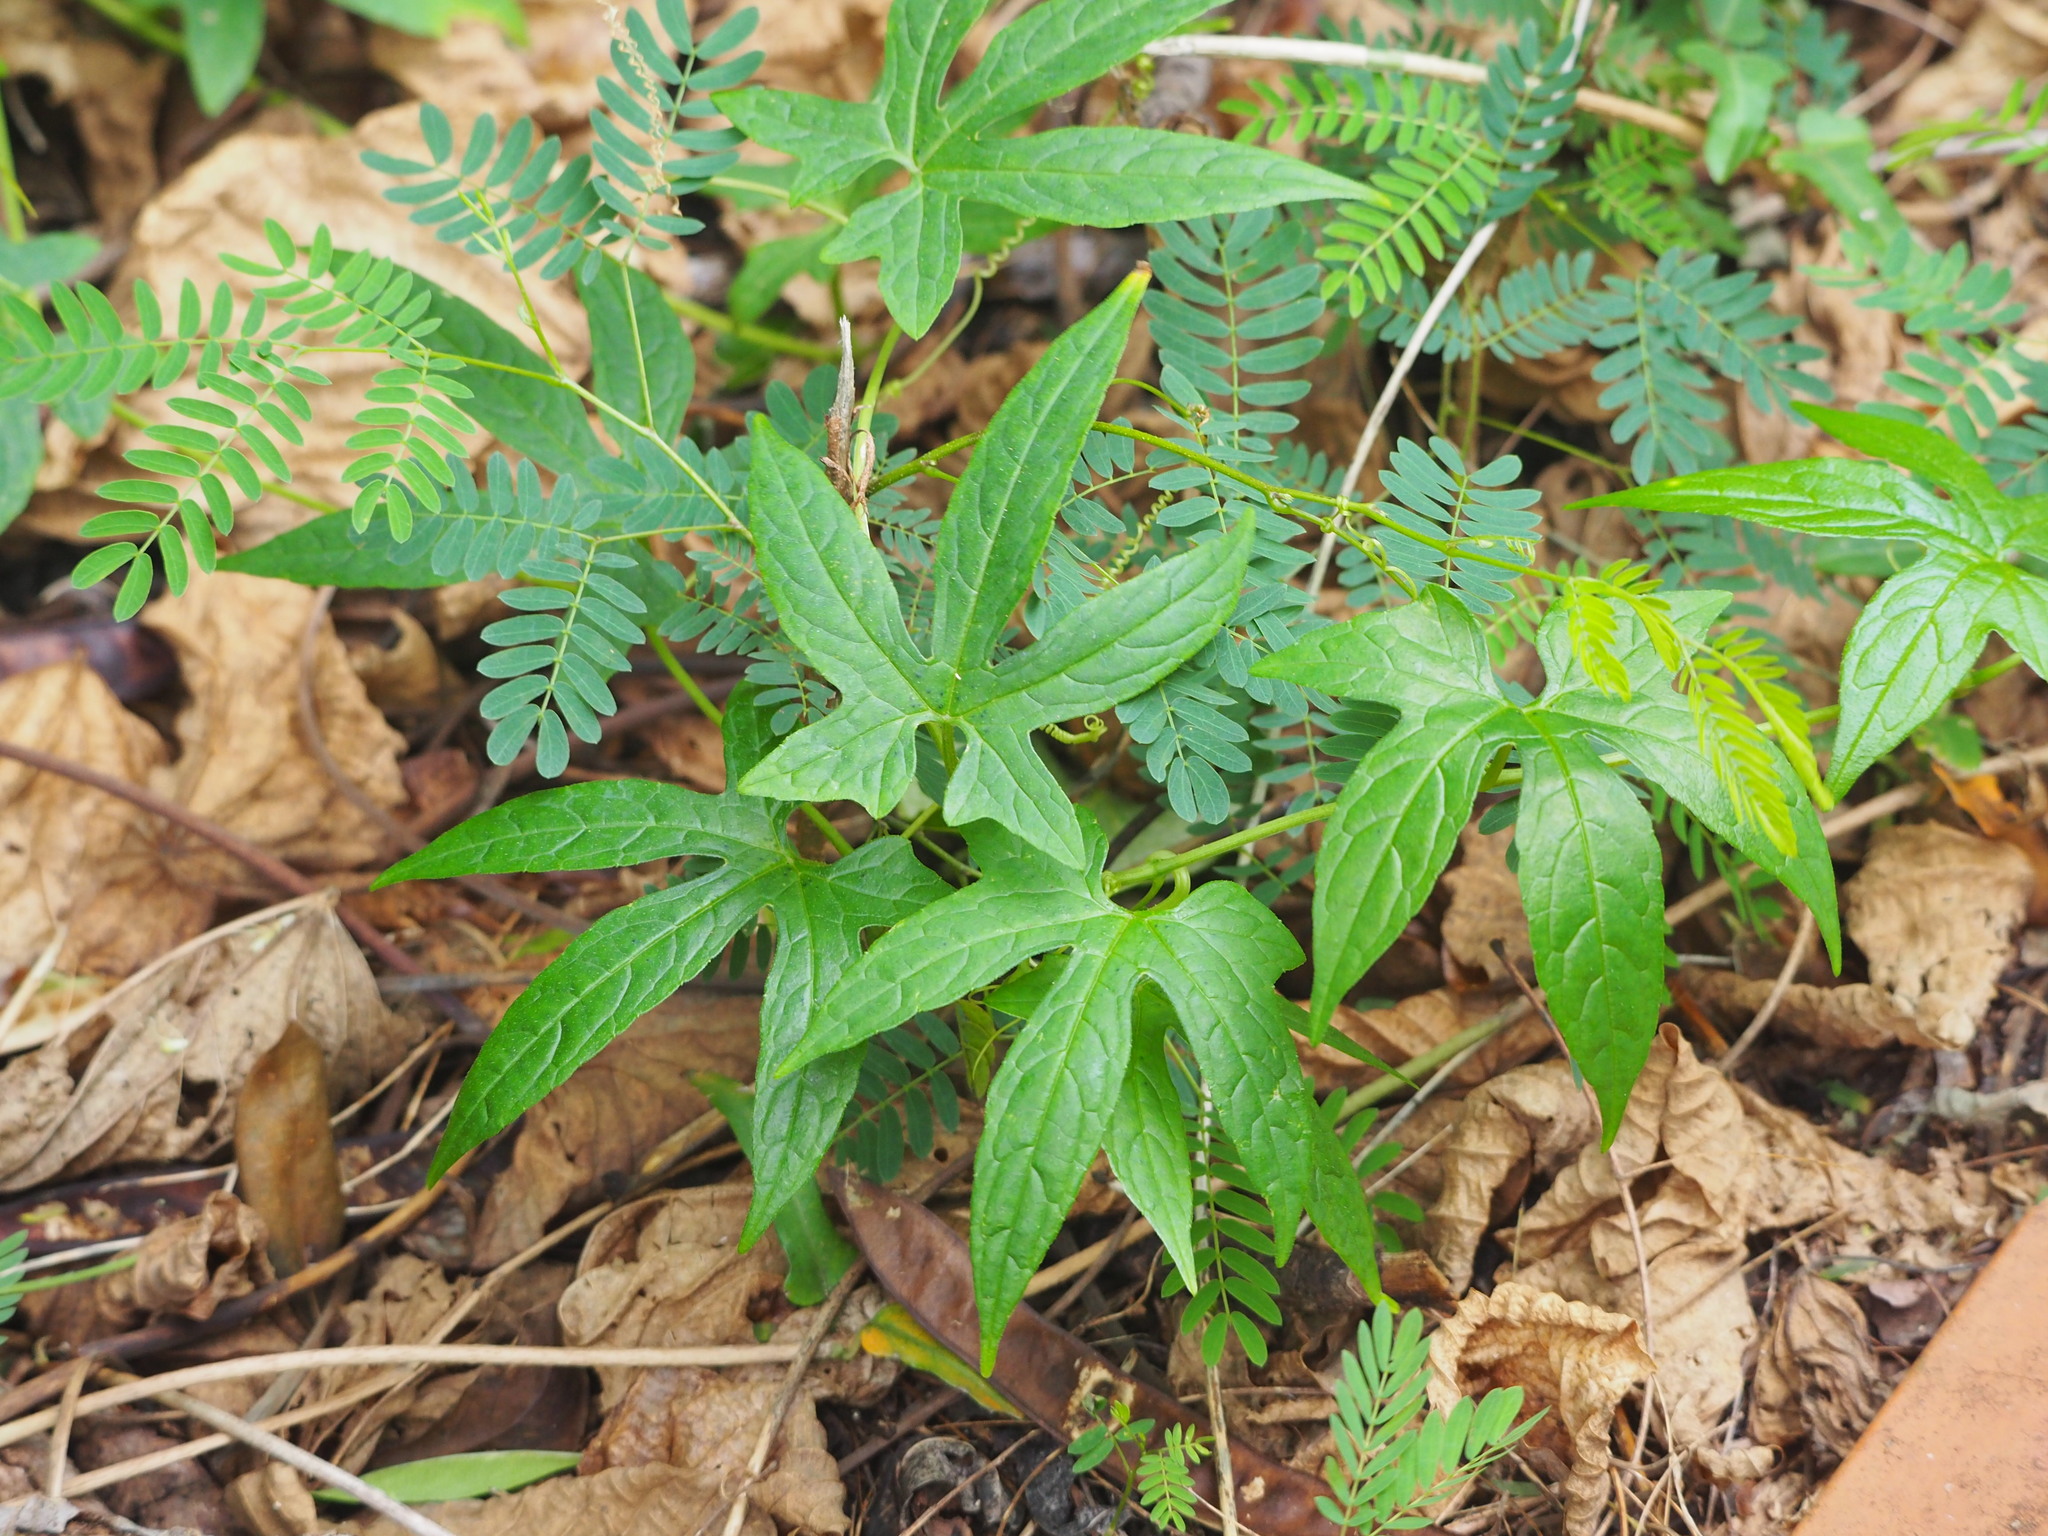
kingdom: Plantae
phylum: Tracheophyta
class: Magnoliopsida
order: Cucurbitales
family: Cucurbitaceae
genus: Diplocyclos
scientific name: Diplocyclos palmatus
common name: Striped-cucumber
